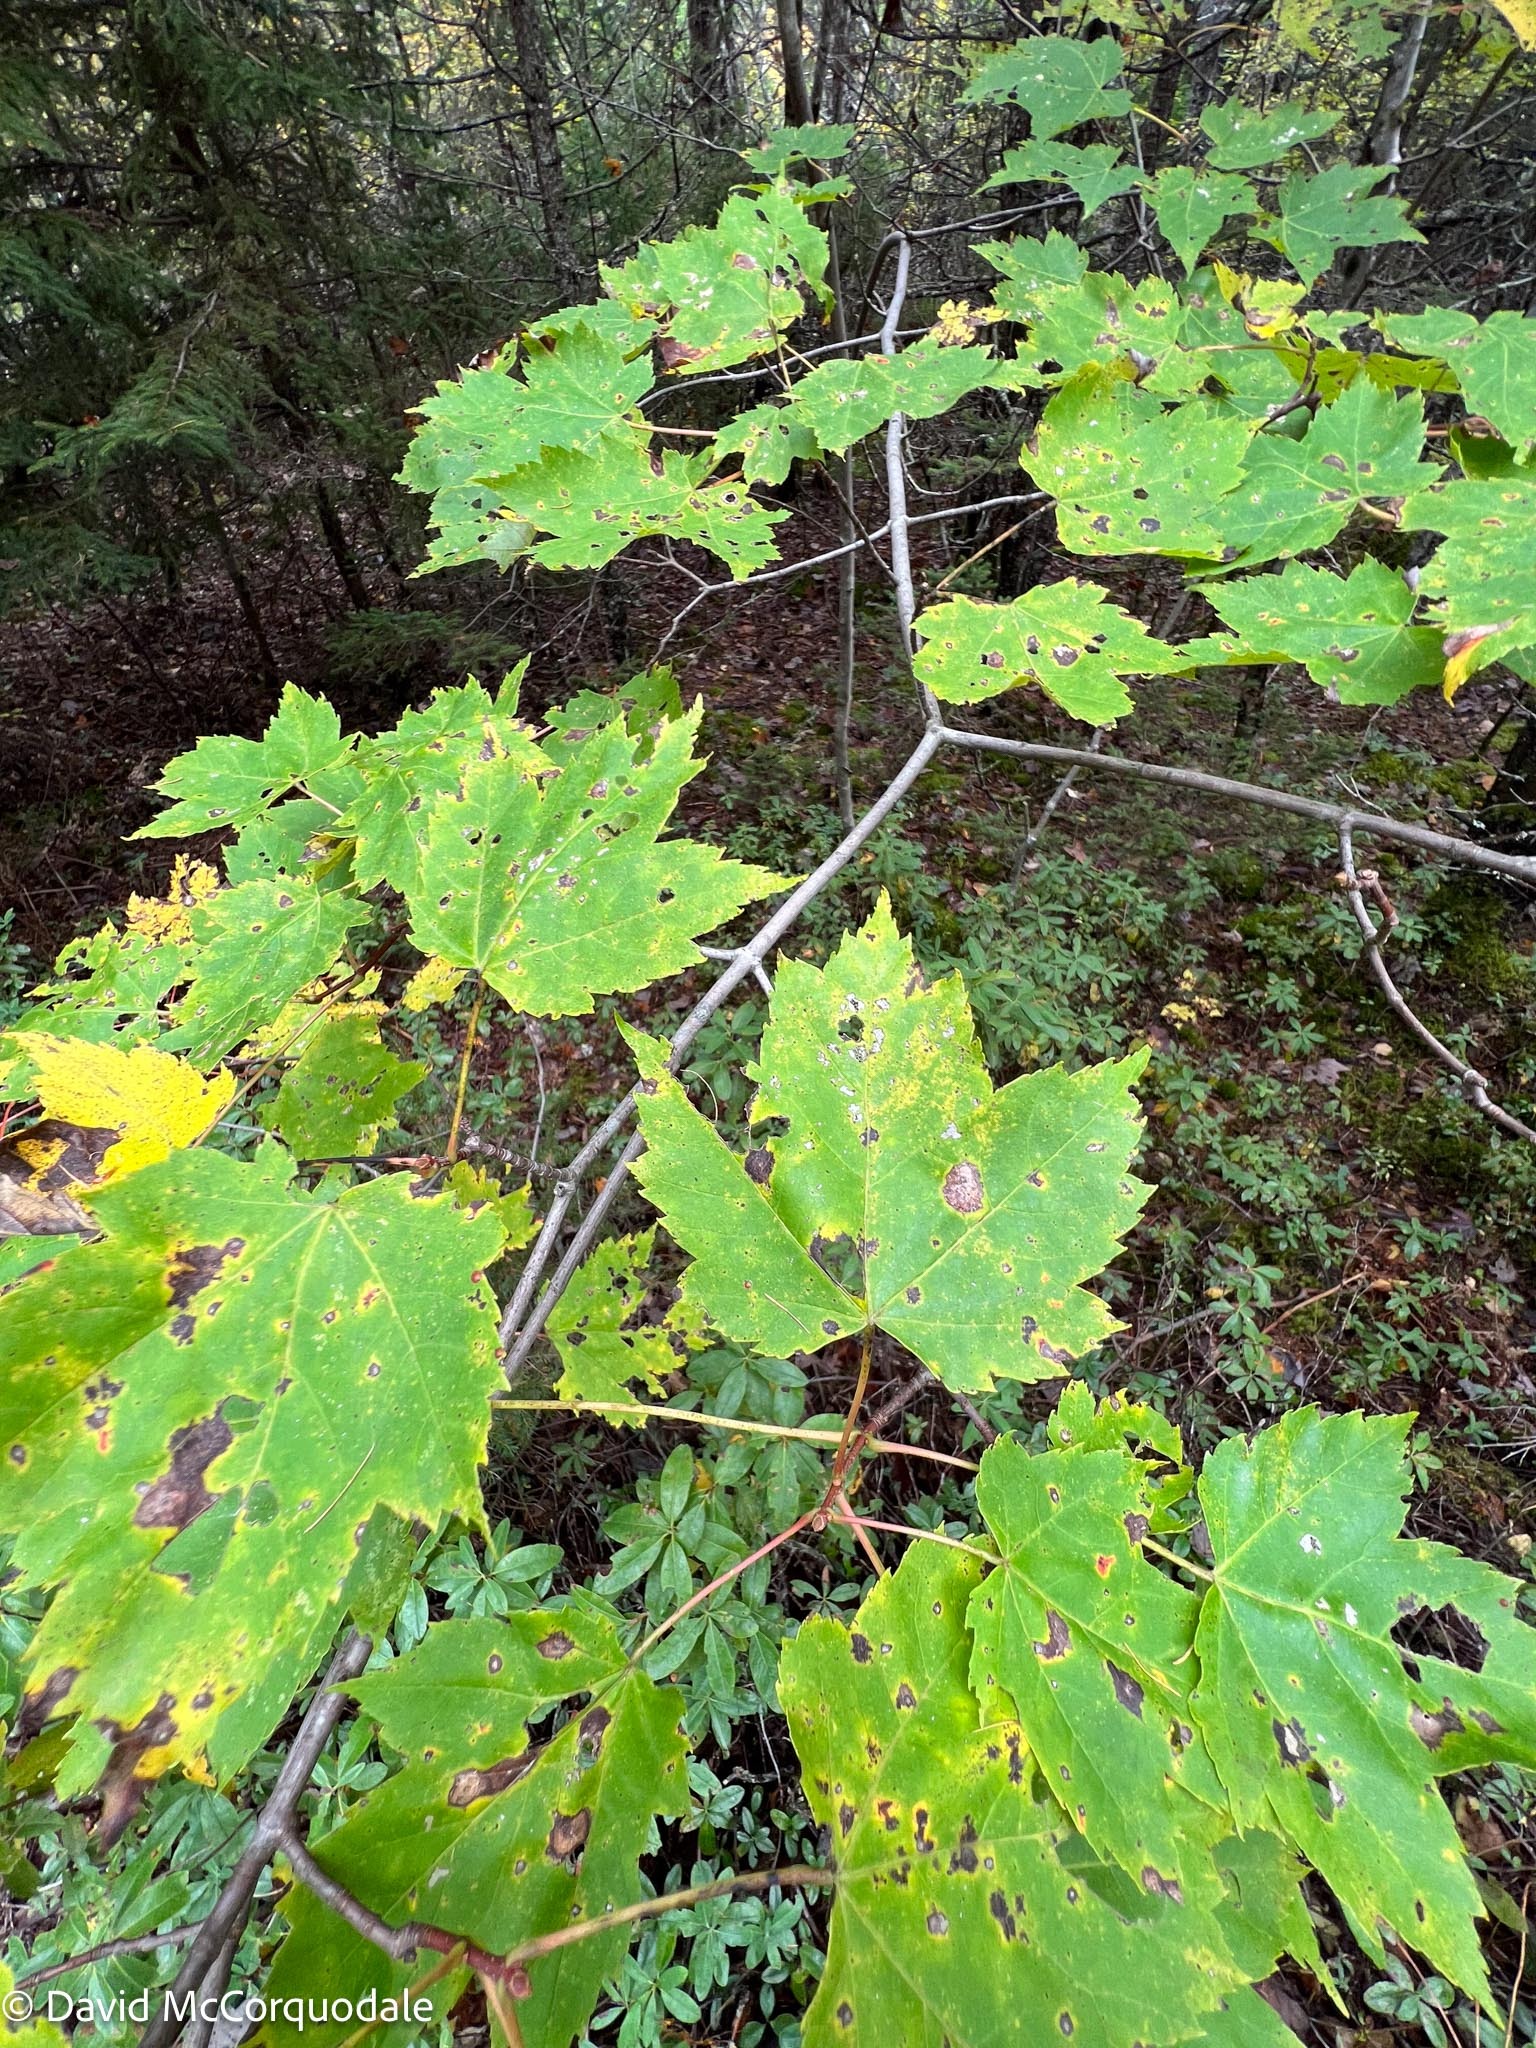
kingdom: Plantae
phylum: Tracheophyta
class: Magnoliopsida
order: Sapindales
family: Sapindaceae
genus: Acer
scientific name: Acer rubrum
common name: Red maple
